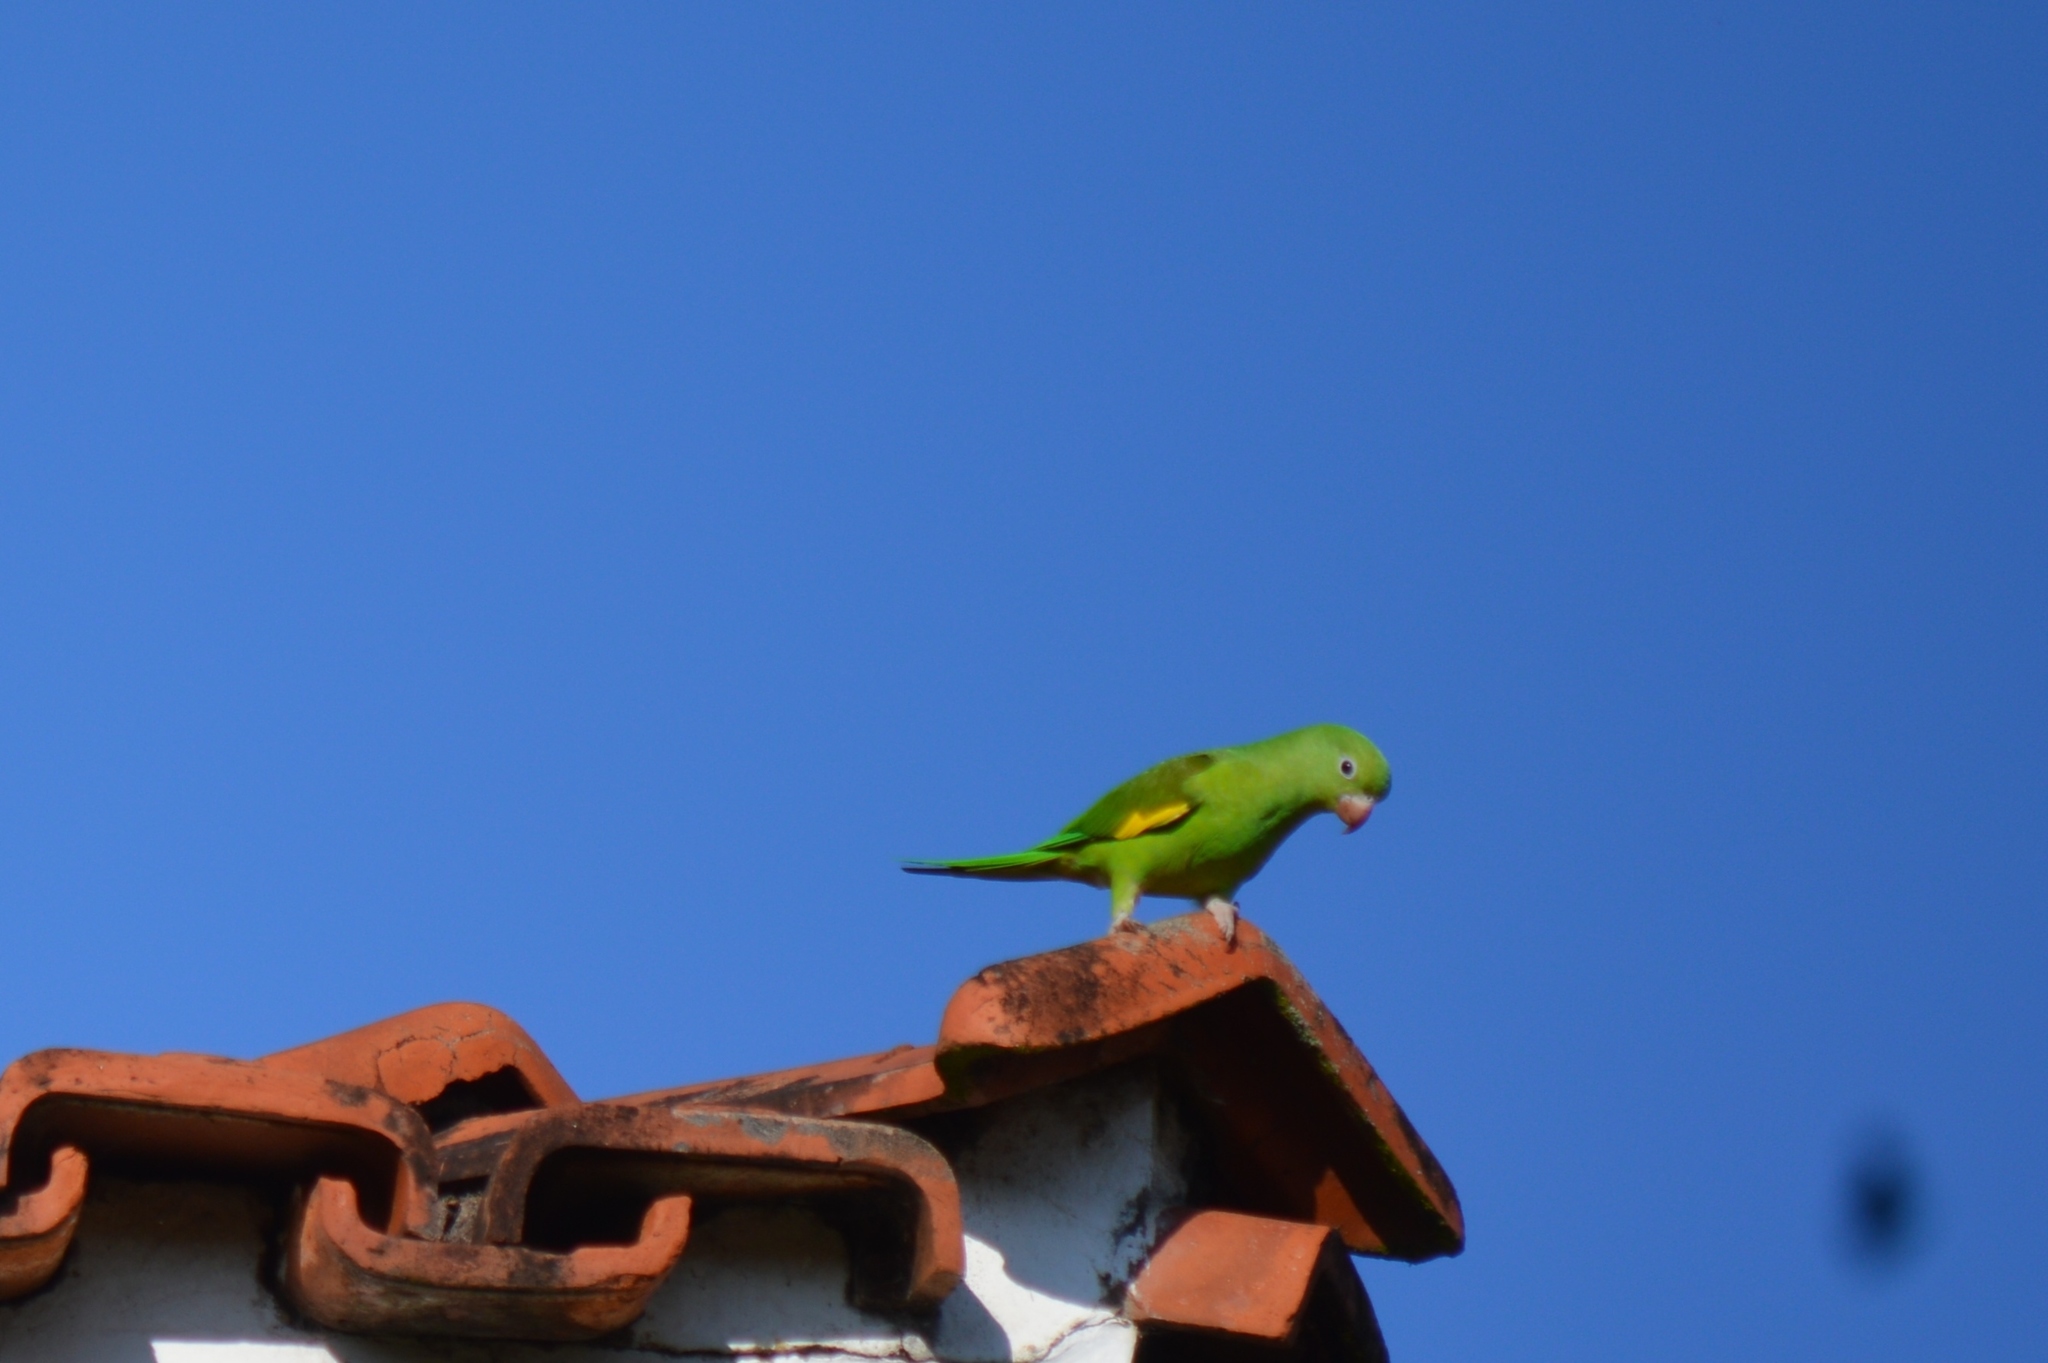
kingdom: Animalia
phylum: Chordata
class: Aves
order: Psittaciformes
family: Psittacidae
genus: Brotogeris
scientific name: Brotogeris chiriri
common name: Yellow-chevroned parakeet
